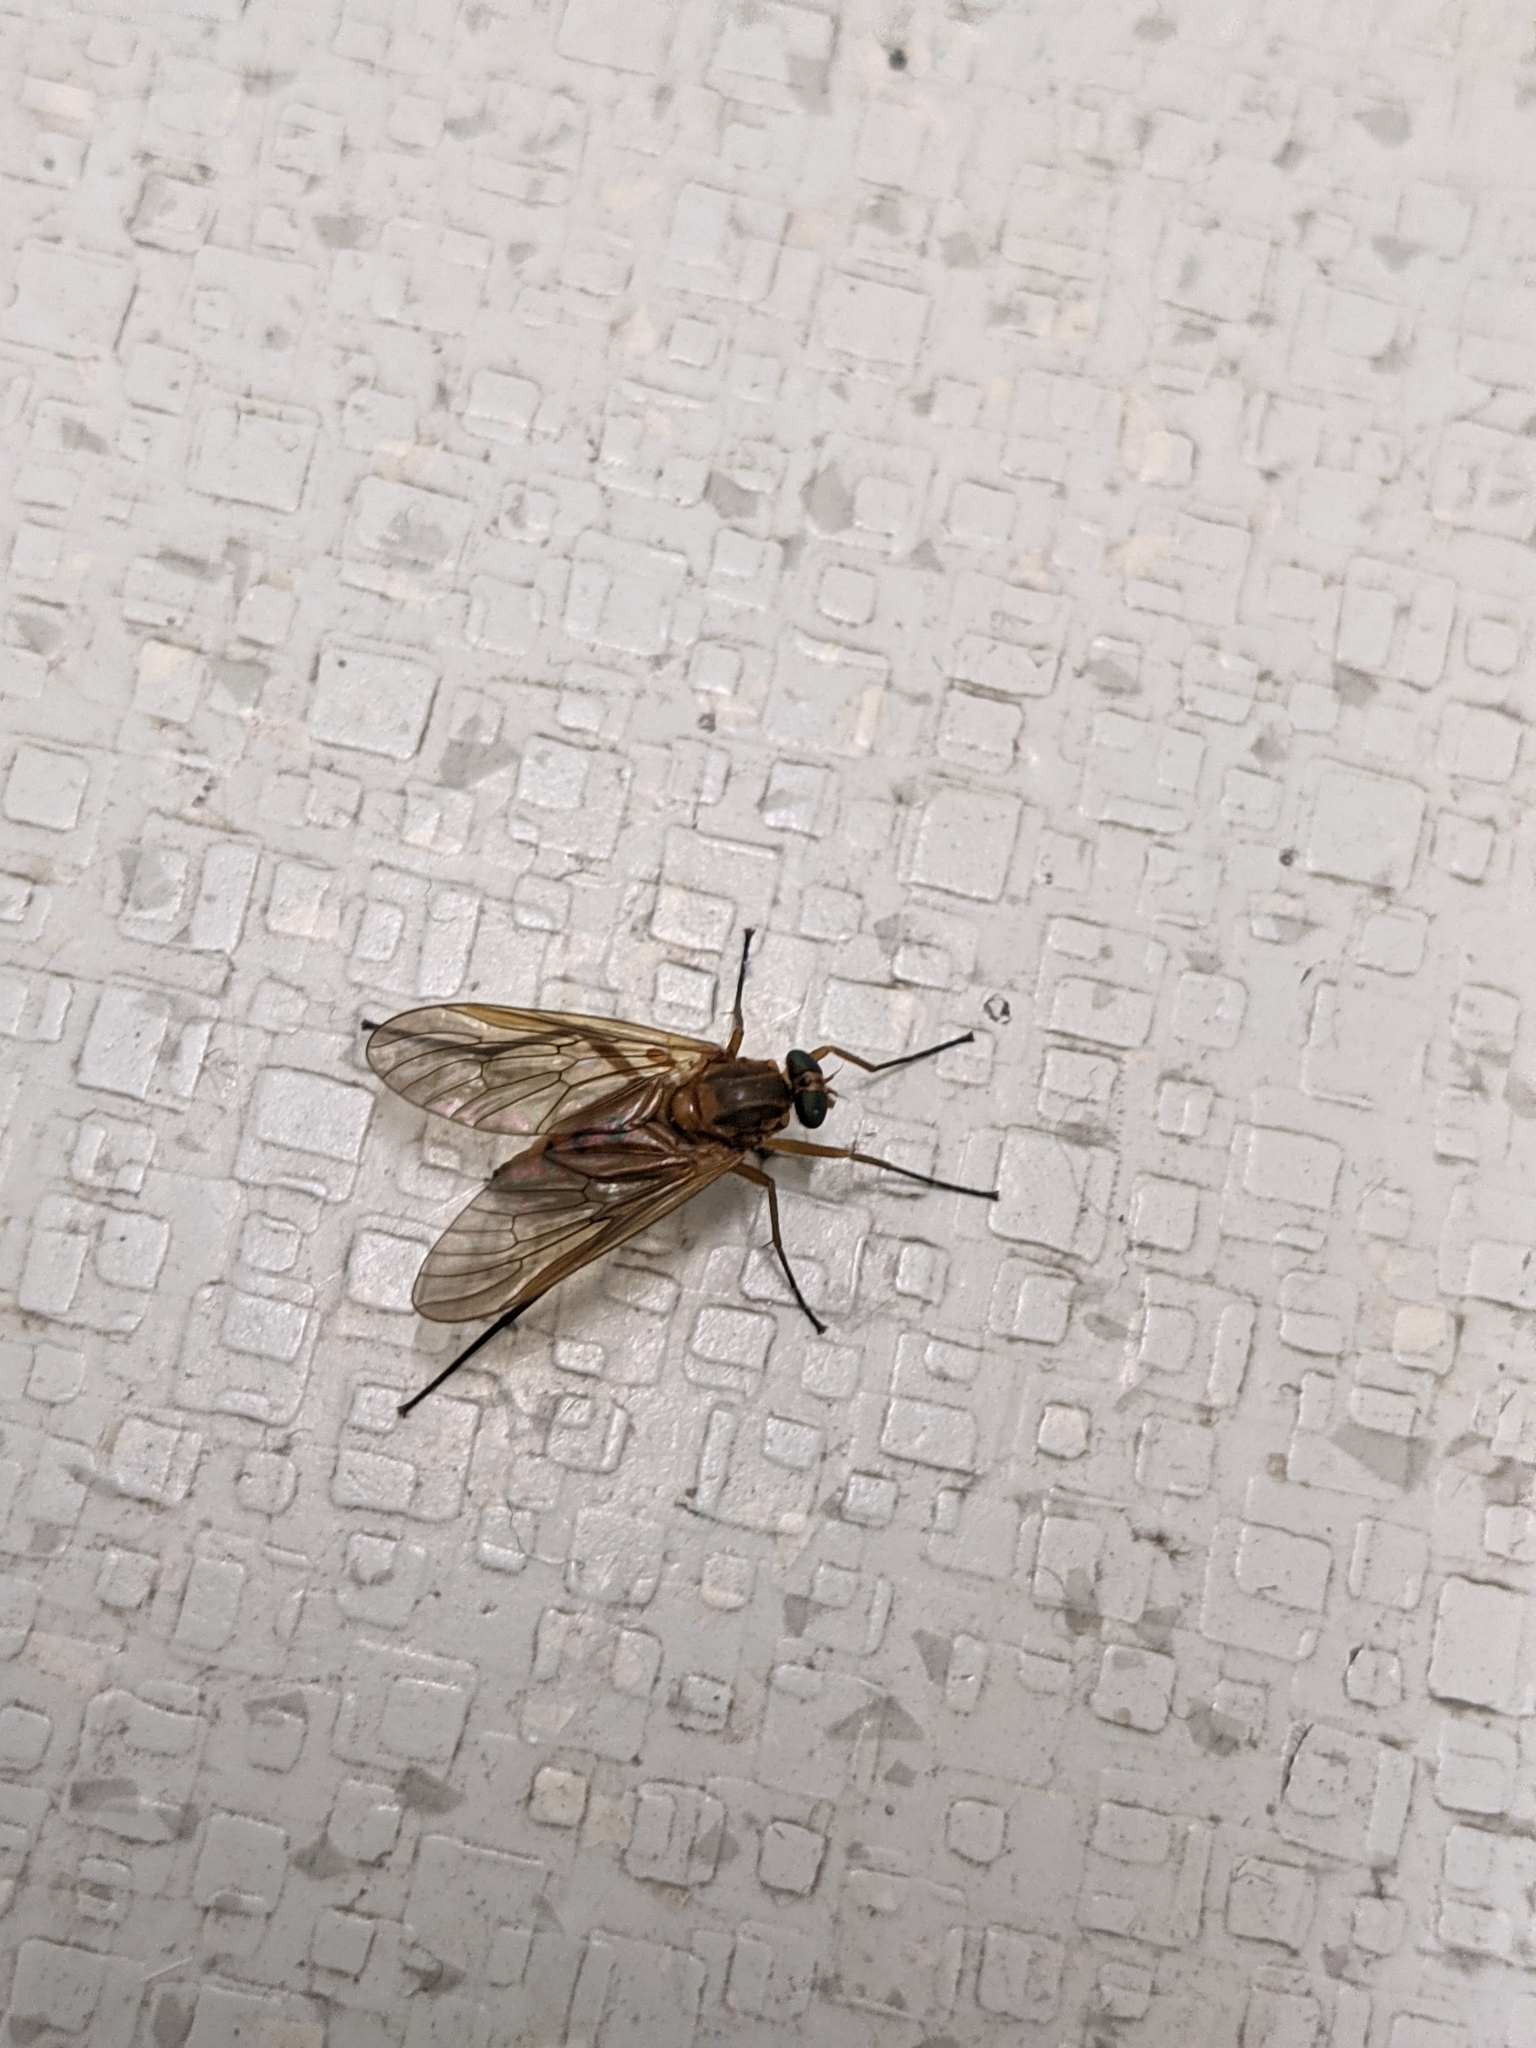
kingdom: Animalia
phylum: Arthropoda
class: Insecta
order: Diptera
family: Rhagionidae
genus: Rhagio
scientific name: Rhagio tringaria
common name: Marsh snipefly
